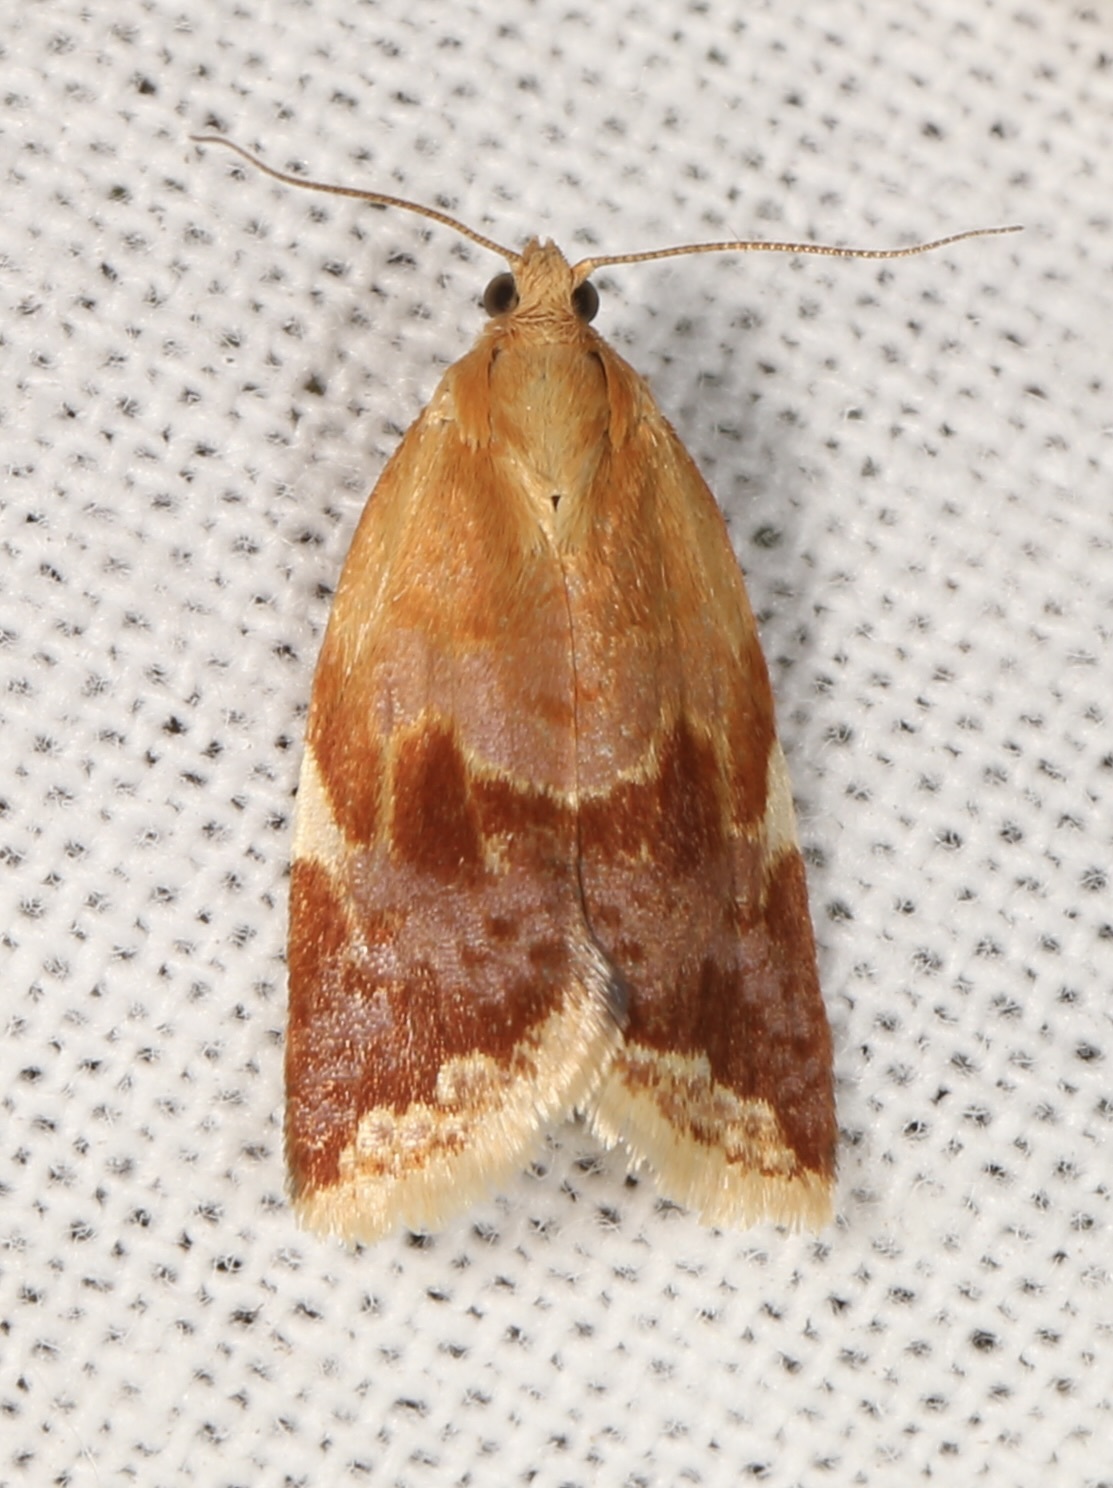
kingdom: Animalia
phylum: Arthropoda
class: Insecta
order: Lepidoptera
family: Tortricidae
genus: Clepsis
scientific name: Clepsis persicana
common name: White triangle tortrix
